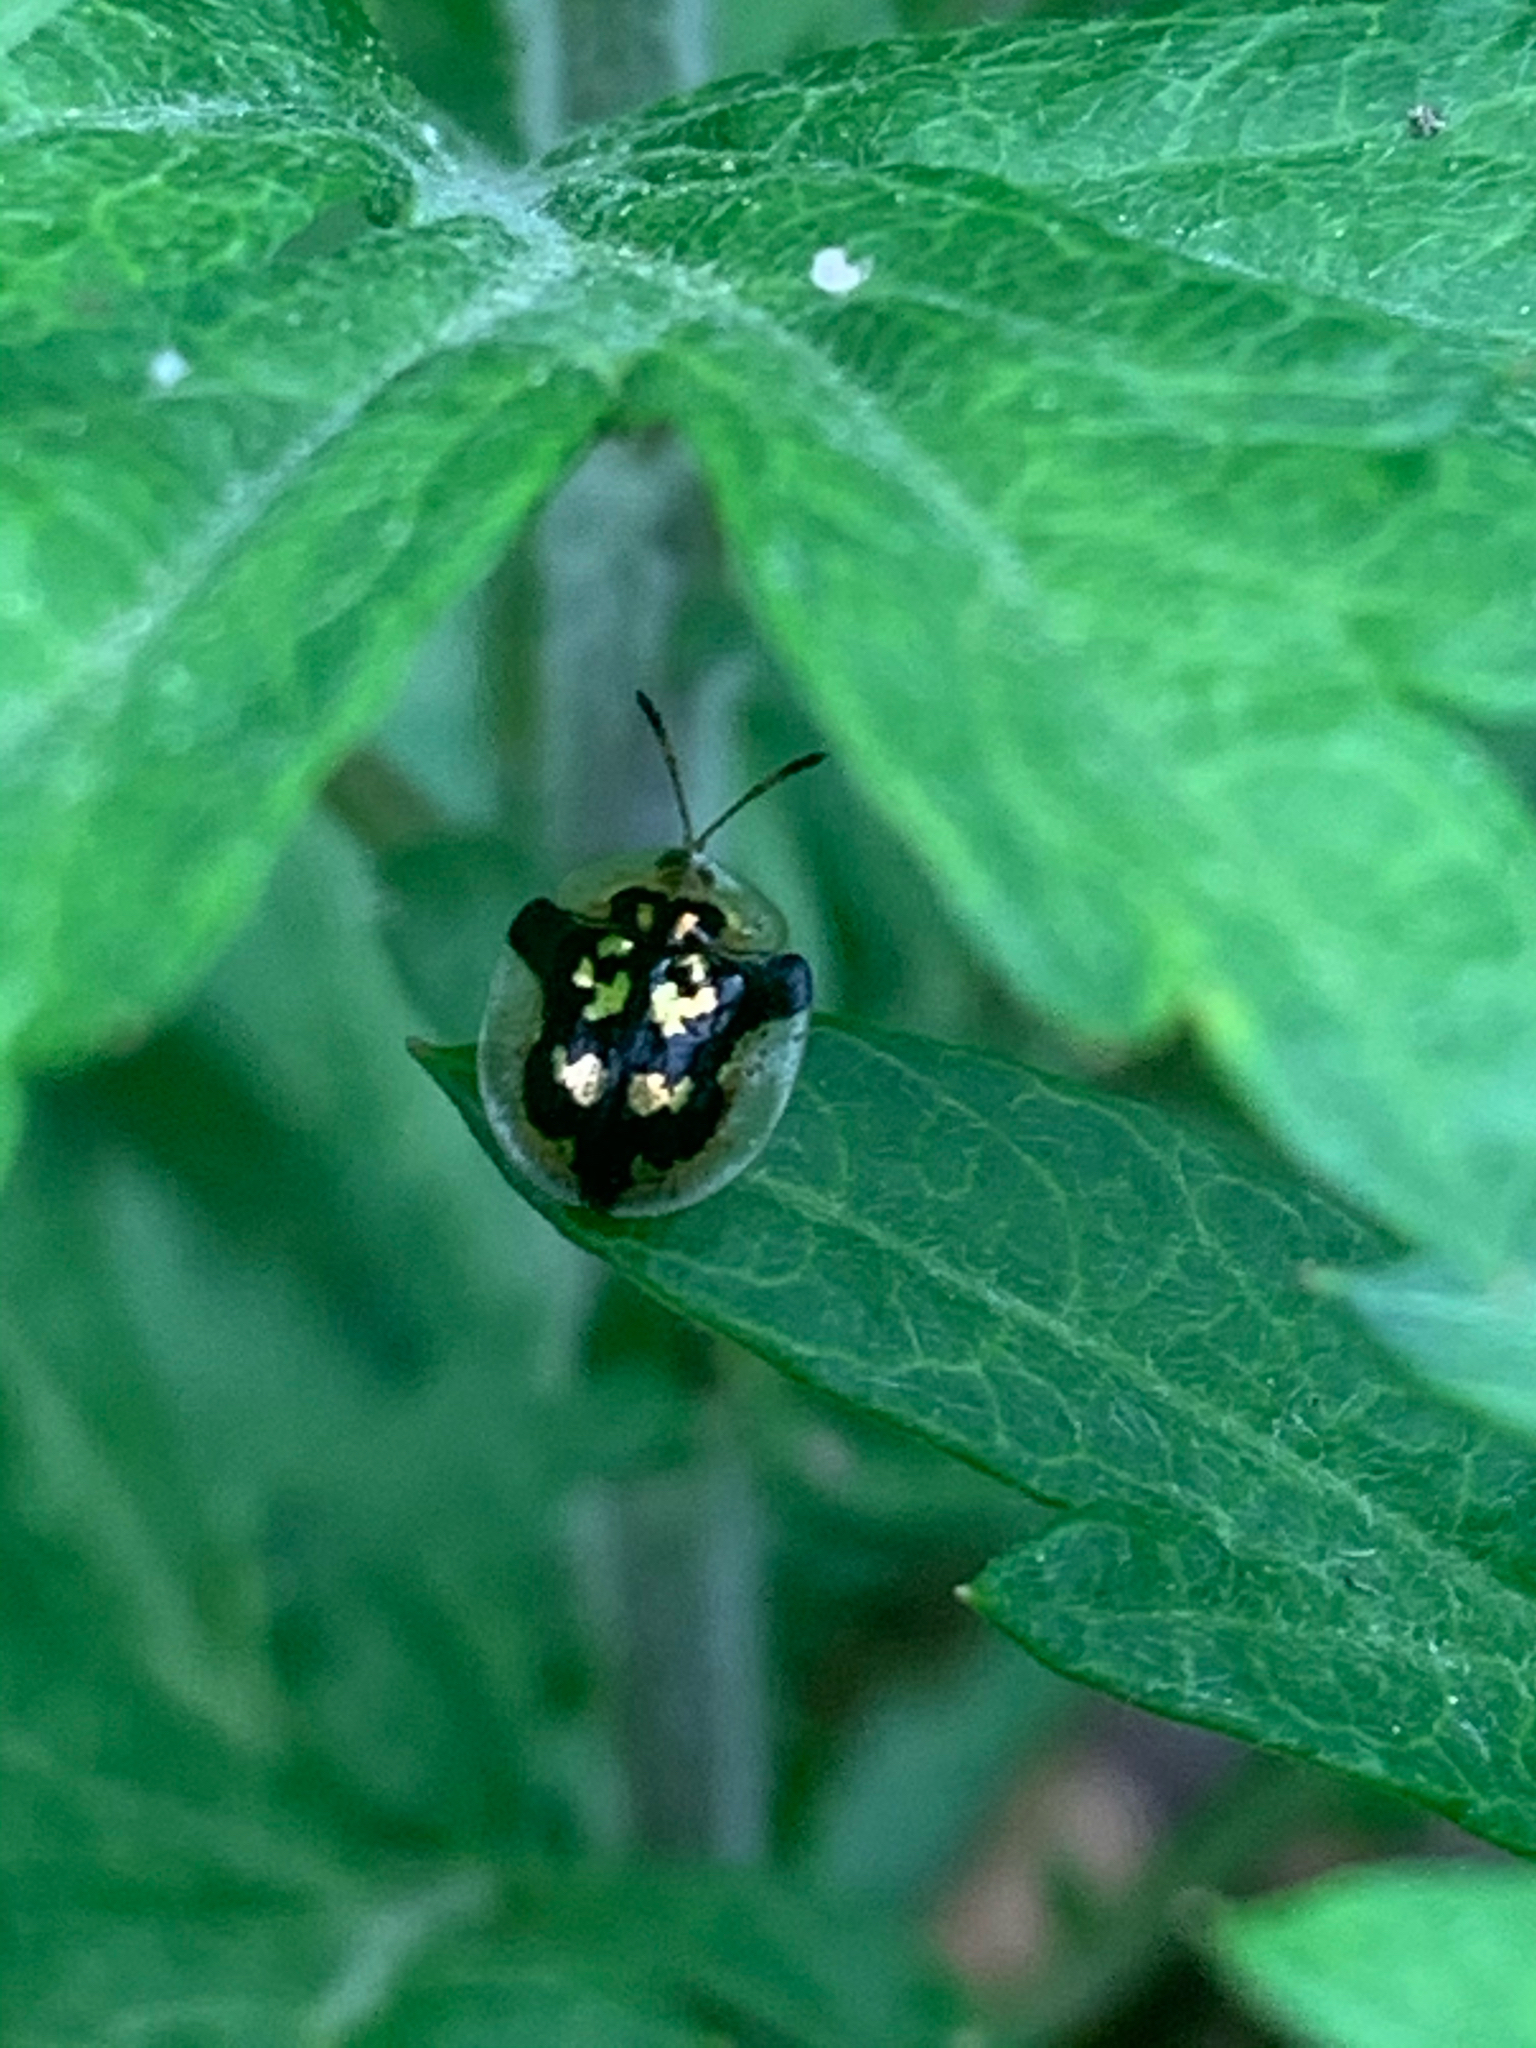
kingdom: Animalia
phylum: Arthropoda
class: Insecta
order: Coleoptera
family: Chrysomelidae
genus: Deloyala
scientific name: Deloyala guttata
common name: Mottled tortoise beetle
